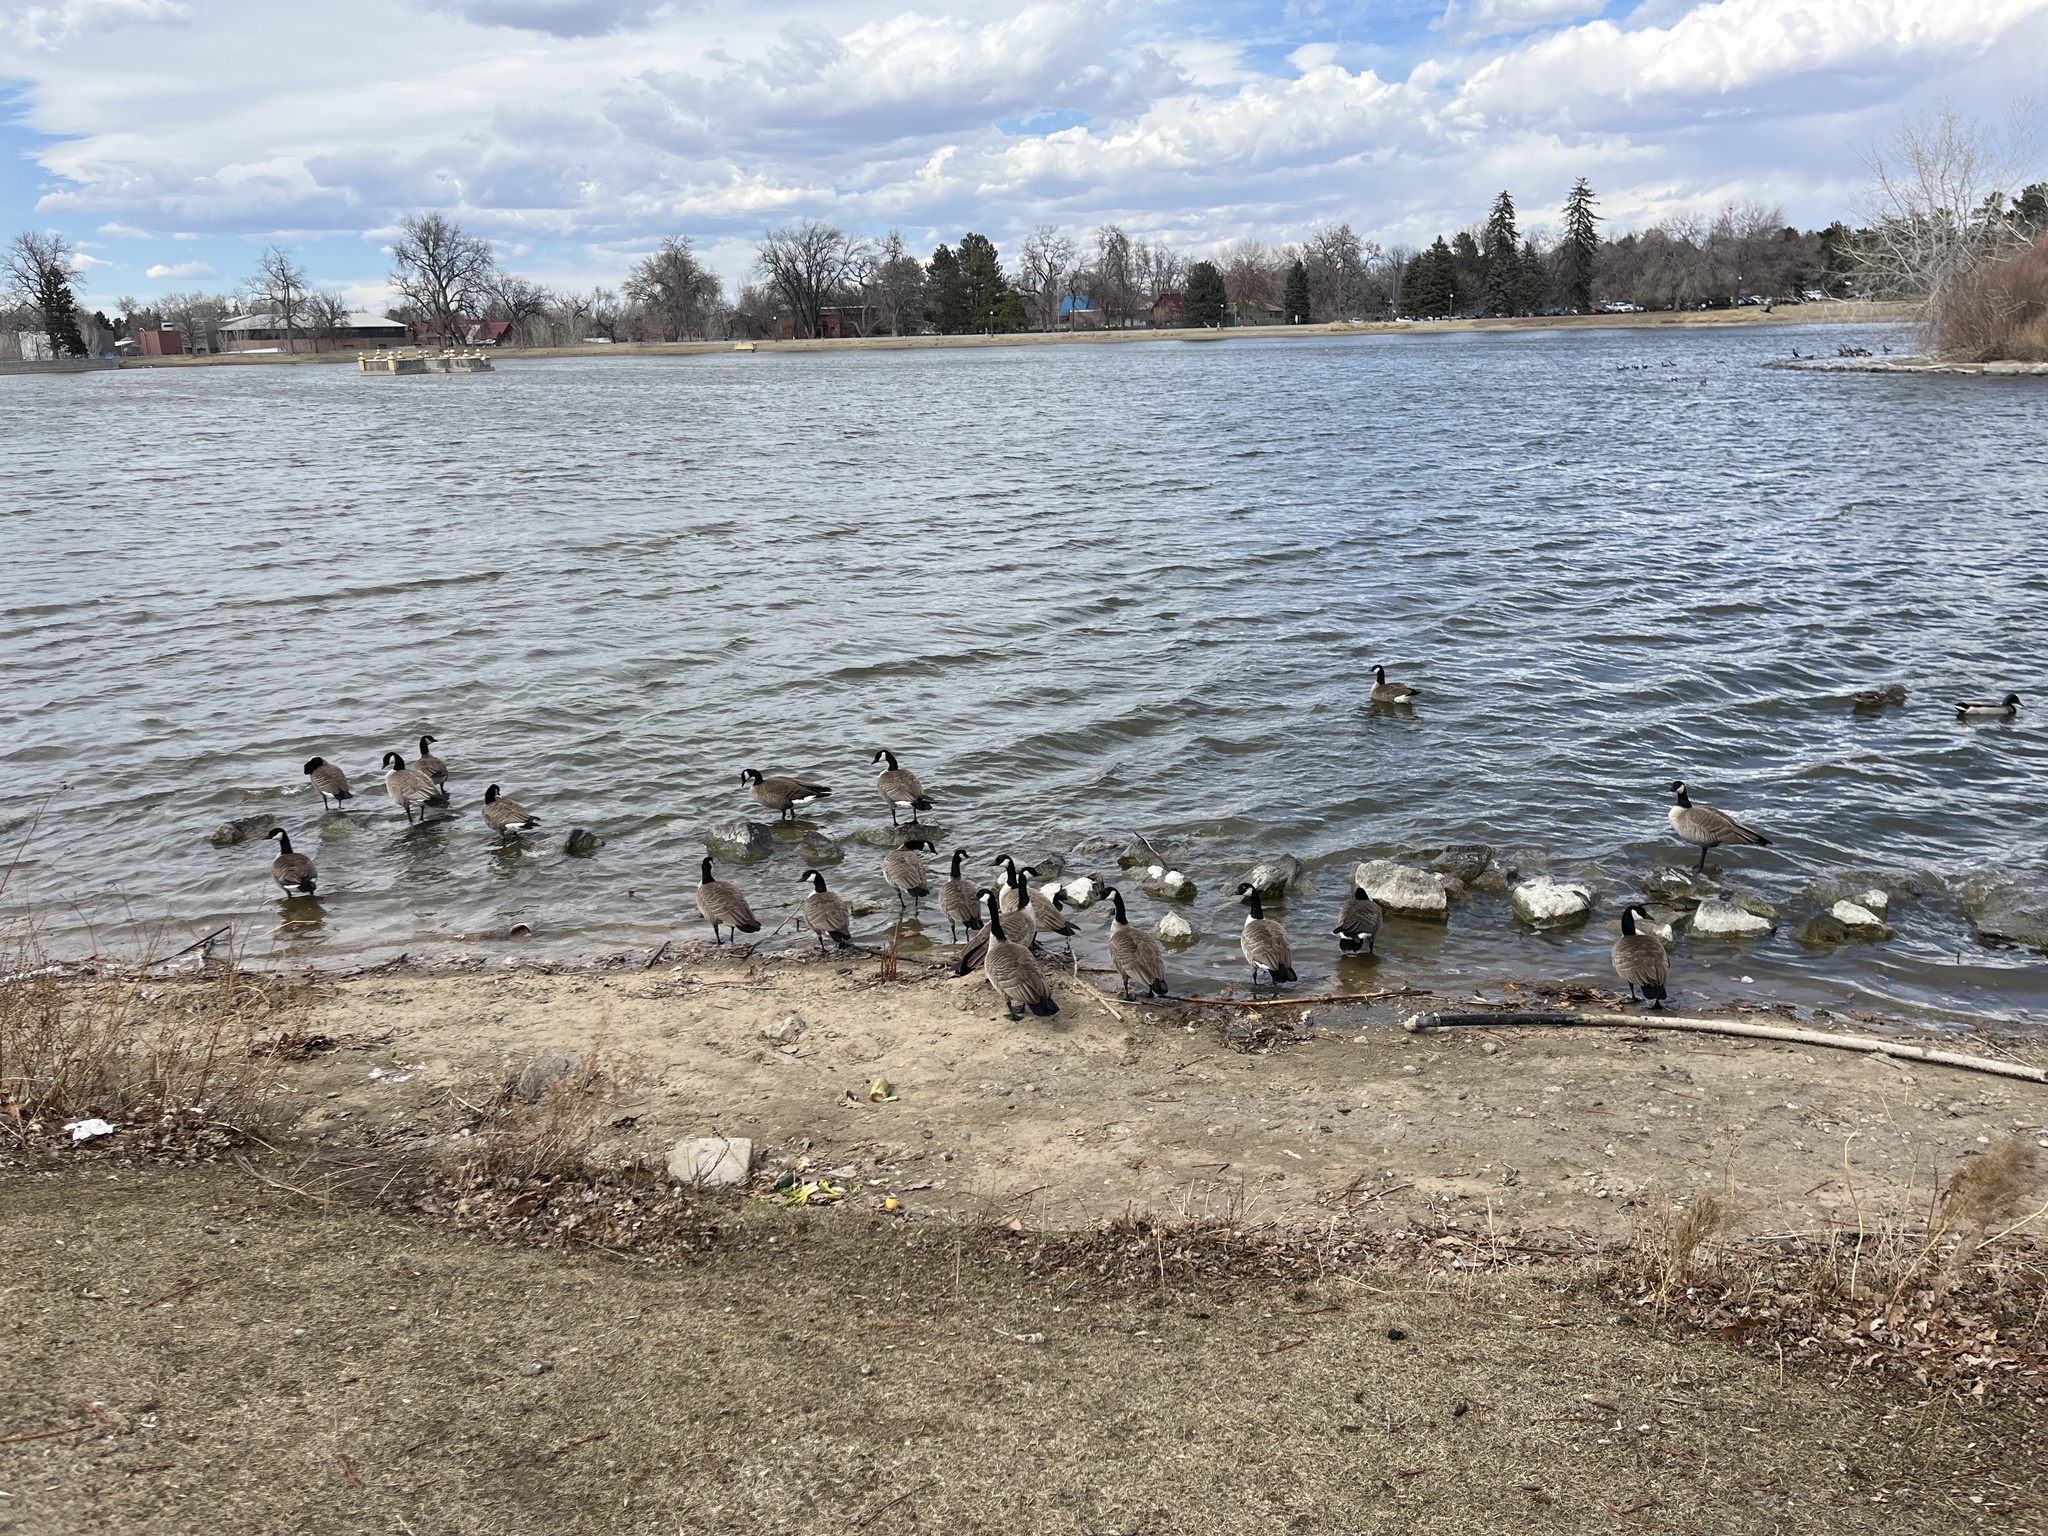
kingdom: Animalia
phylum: Chordata
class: Aves
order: Anseriformes
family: Anatidae
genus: Branta
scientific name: Branta canadensis
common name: Canada goose
